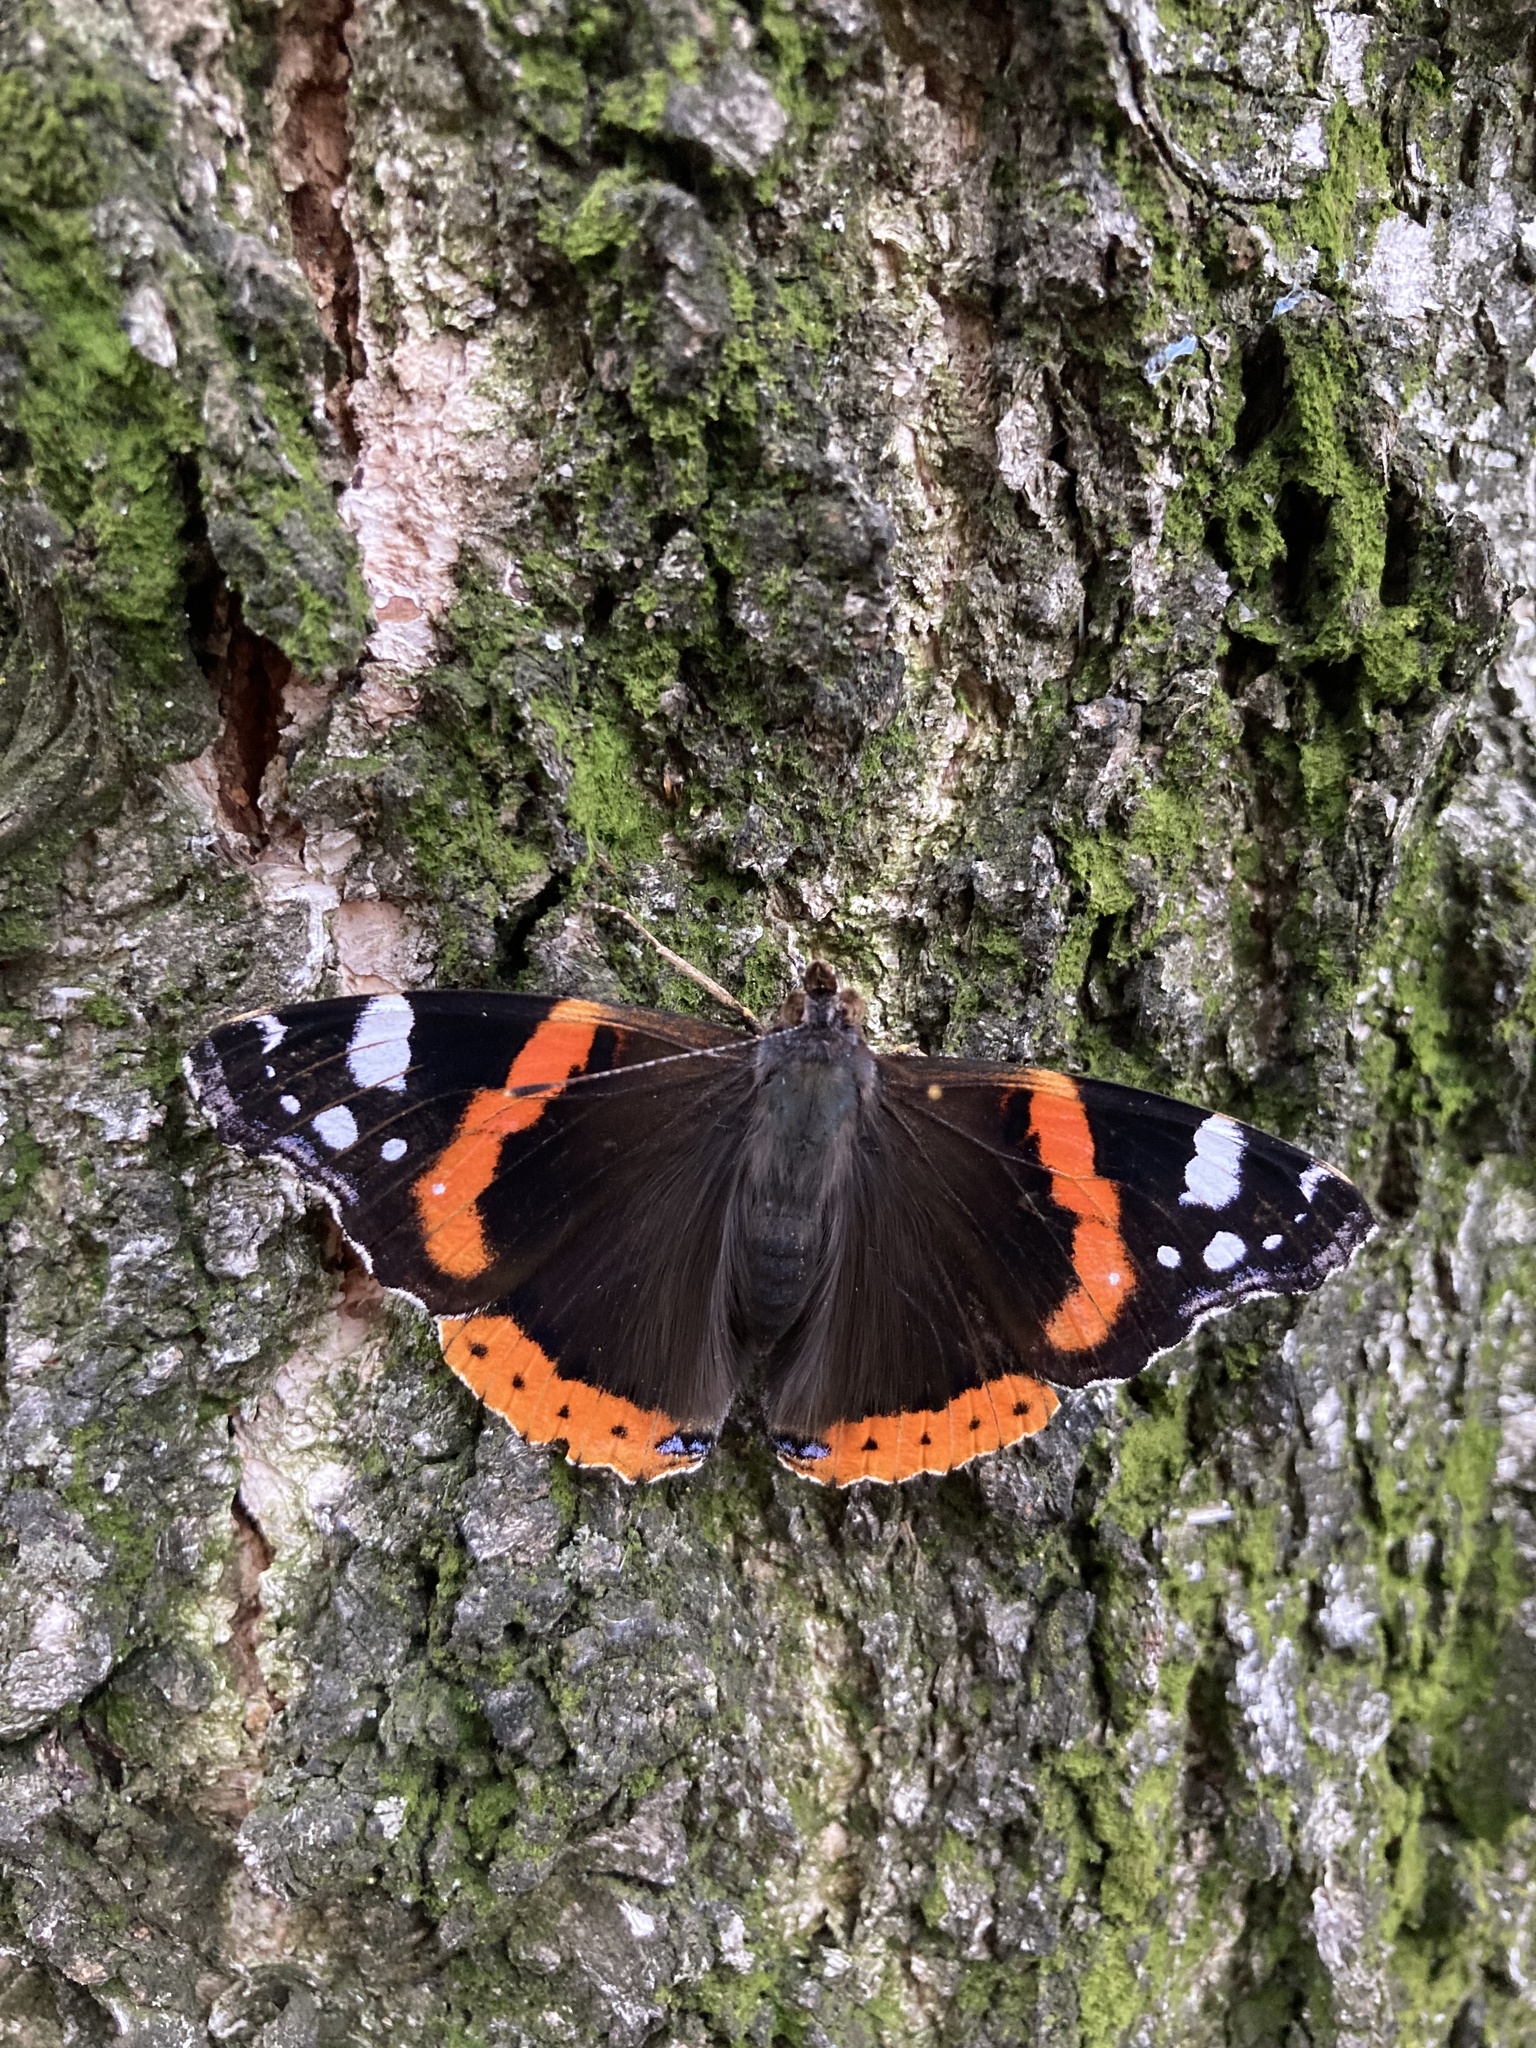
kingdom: Animalia
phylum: Arthropoda
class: Insecta
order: Lepidoptera
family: Nymphalidae
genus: Vanessa
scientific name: Vanessa atalanta
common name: Red admiral
